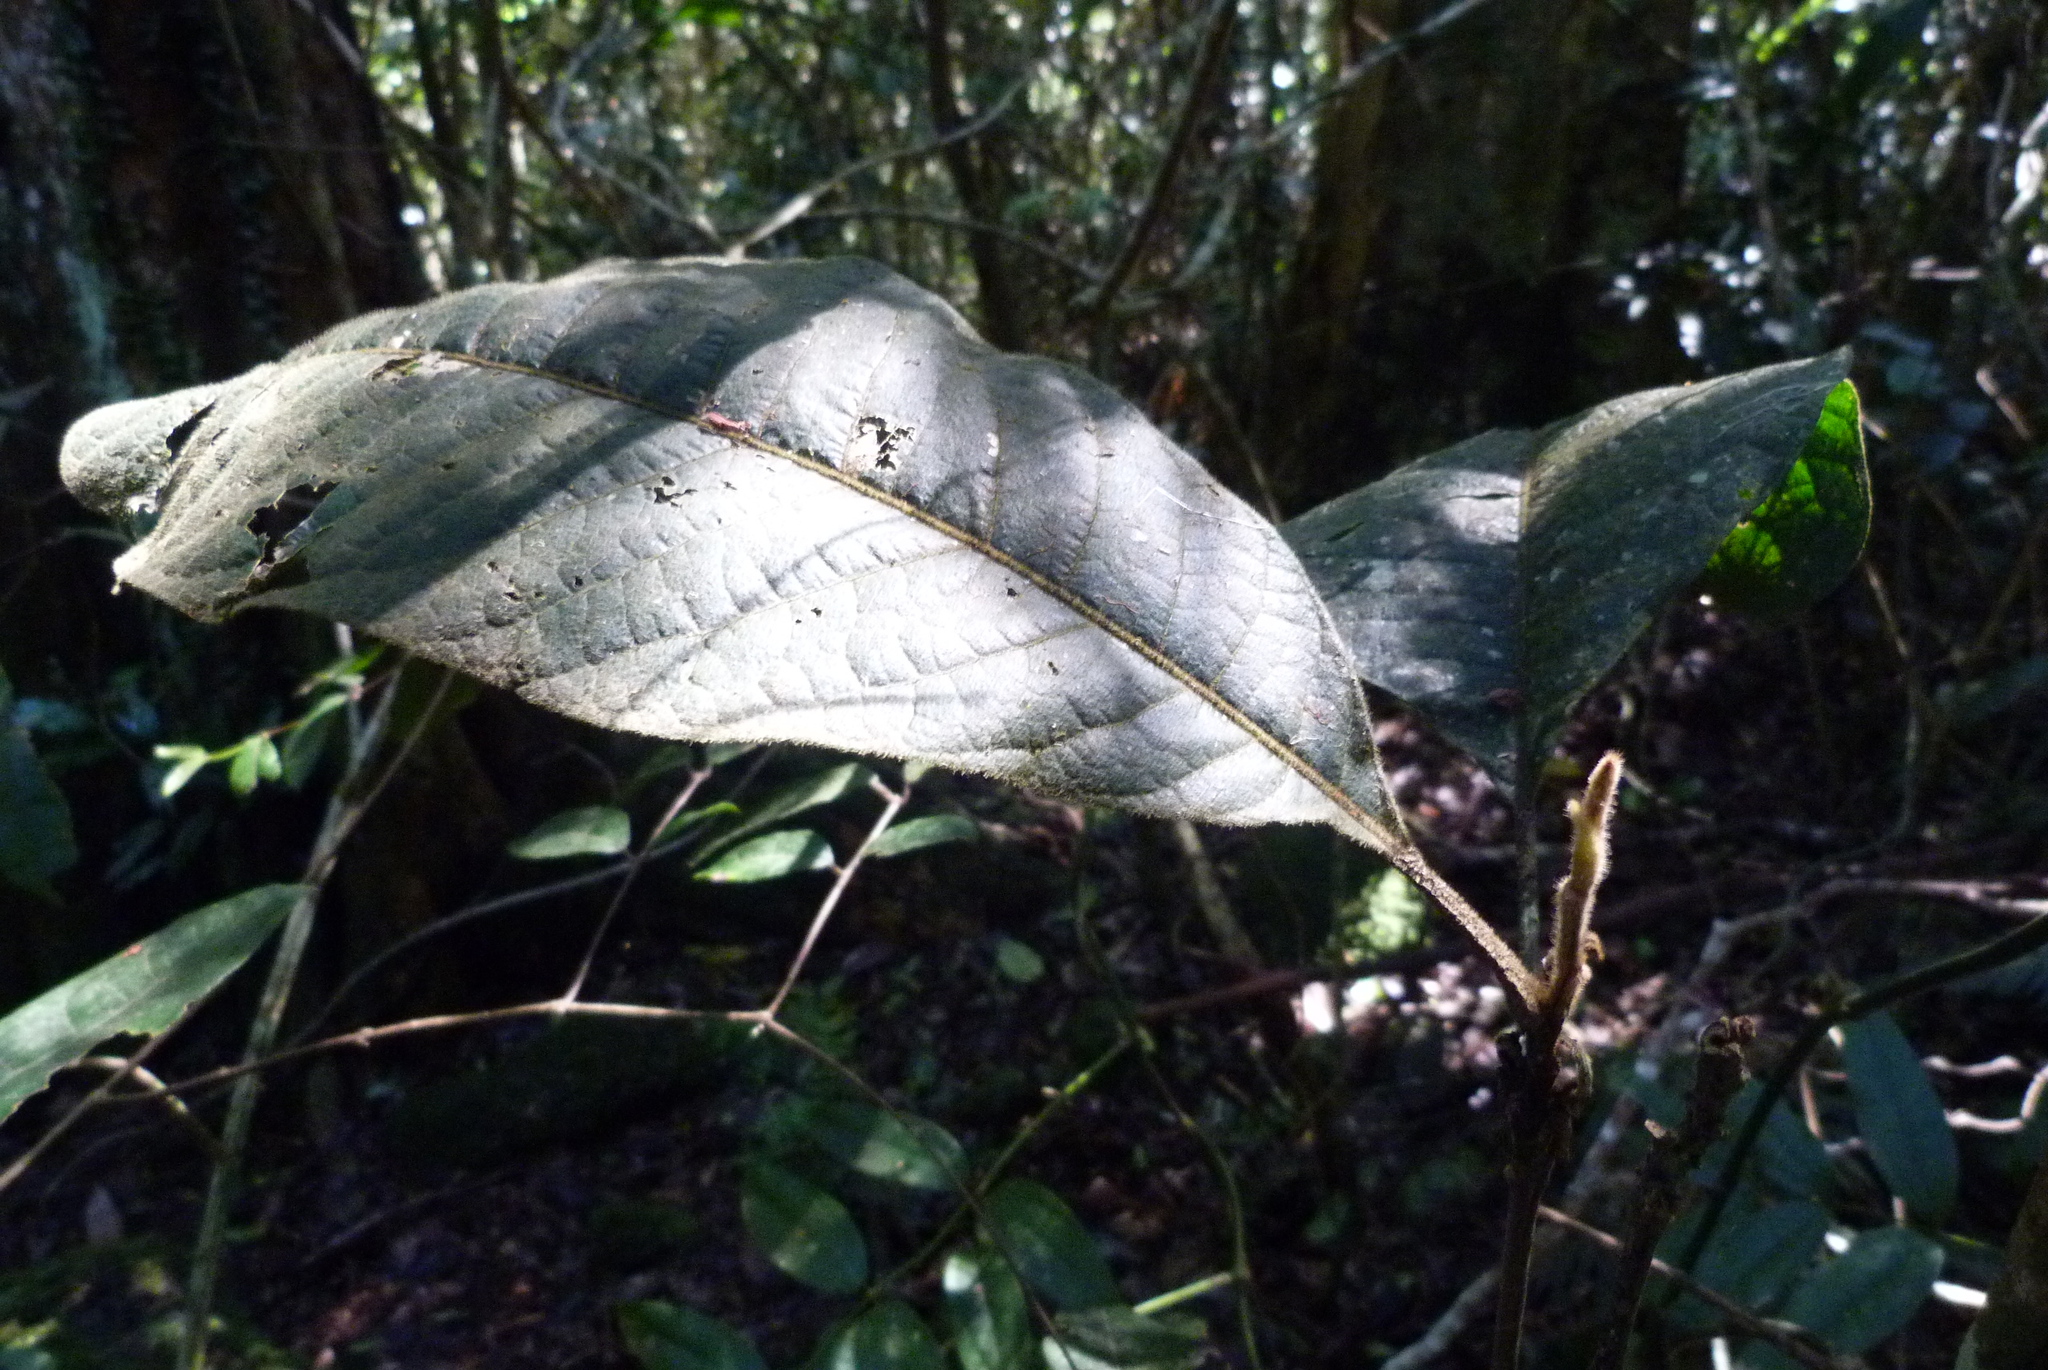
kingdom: Plantae
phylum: Tracheophyta
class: Magnoliopsida
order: Sapindales
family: Sapindaceae
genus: Diploglottis
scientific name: Diploglottis australis
